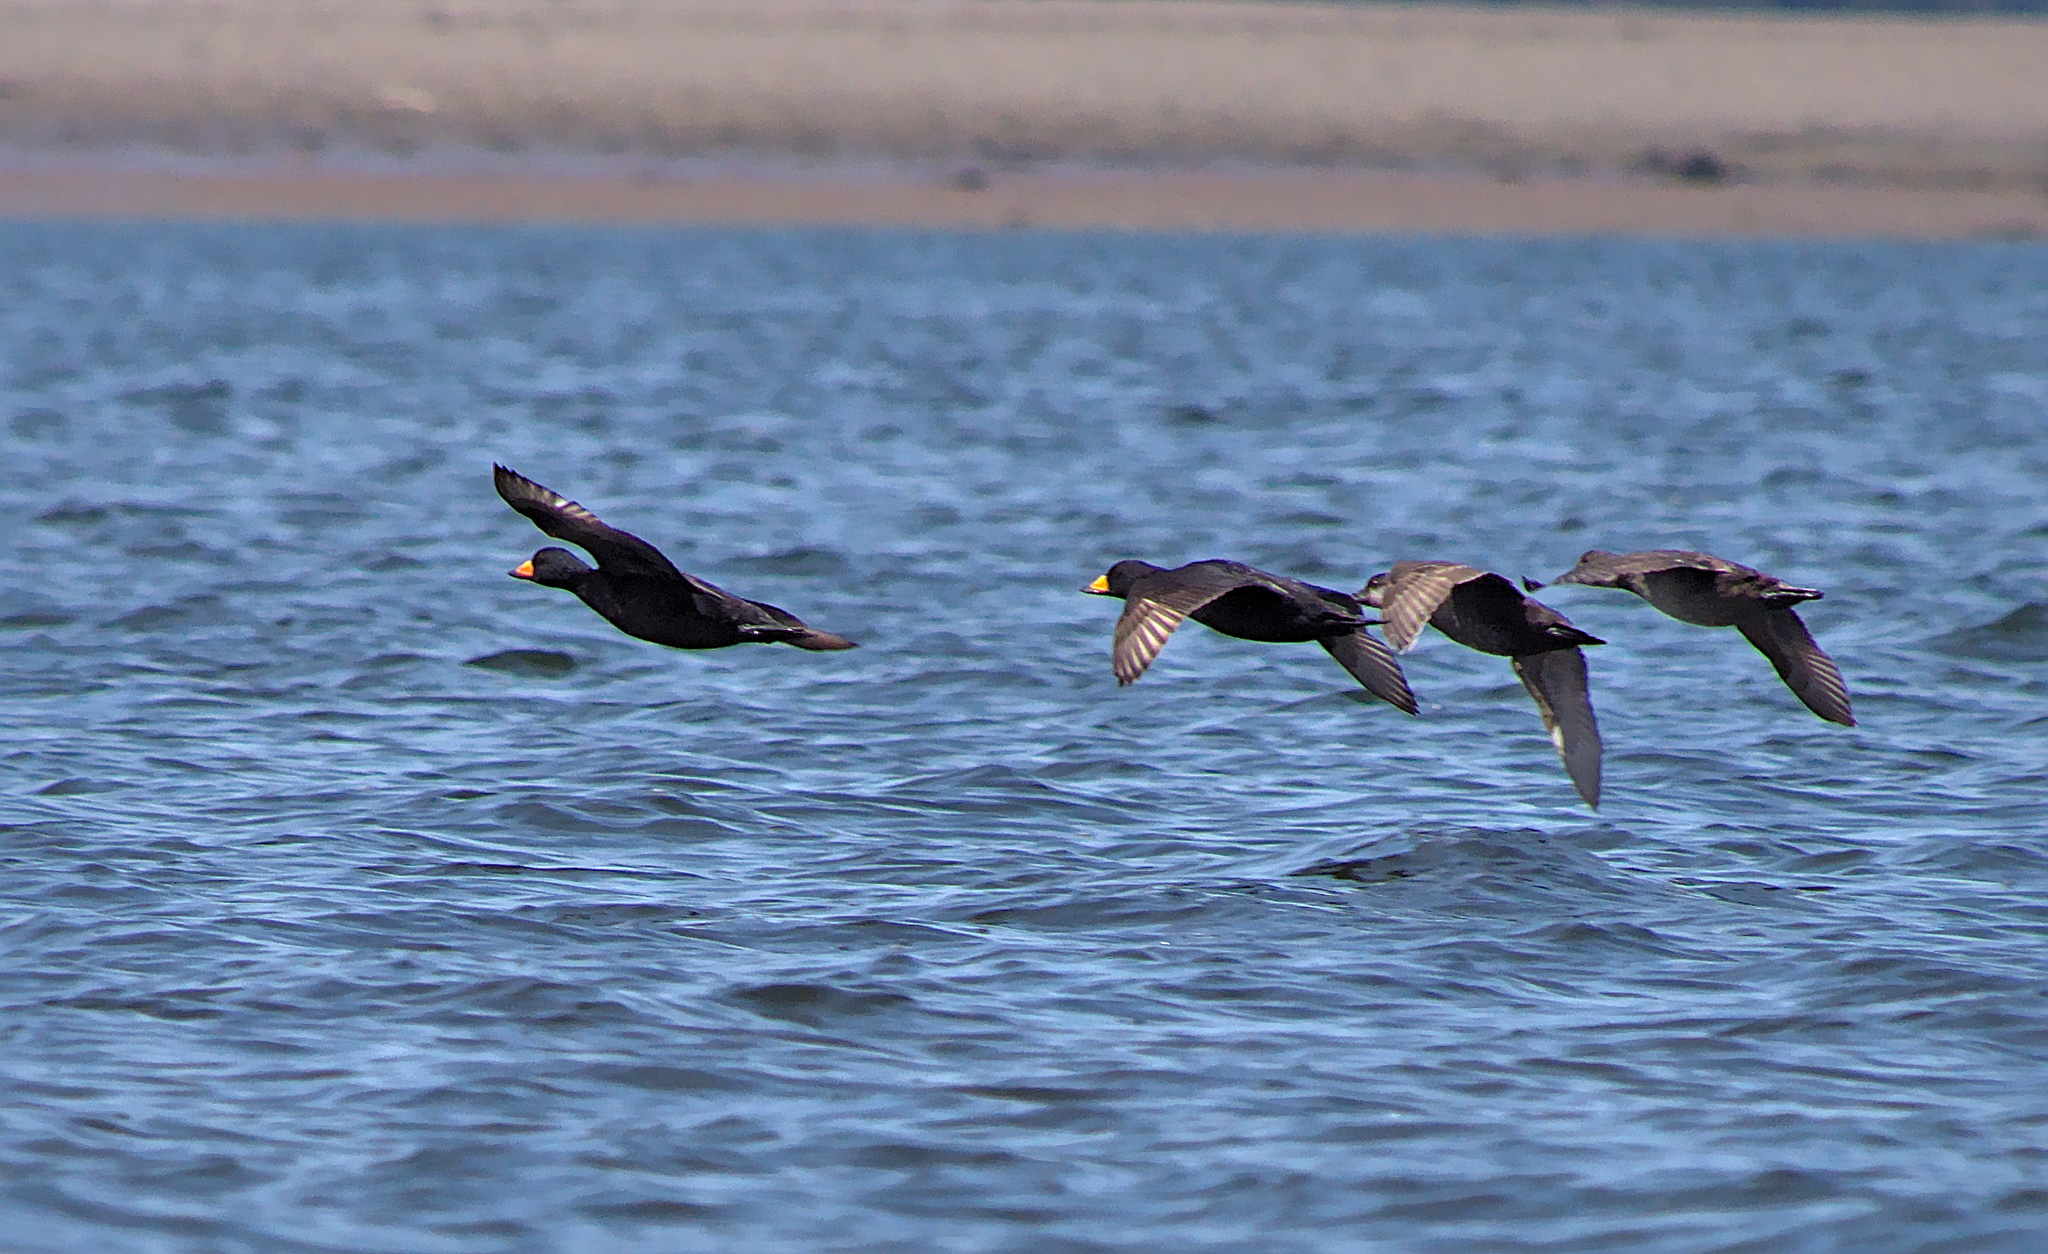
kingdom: Animalia
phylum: Chordata
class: Aves
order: Anseriformes
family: Anatidae
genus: Melanitta
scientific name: Melanitta americana
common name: Black scoter
